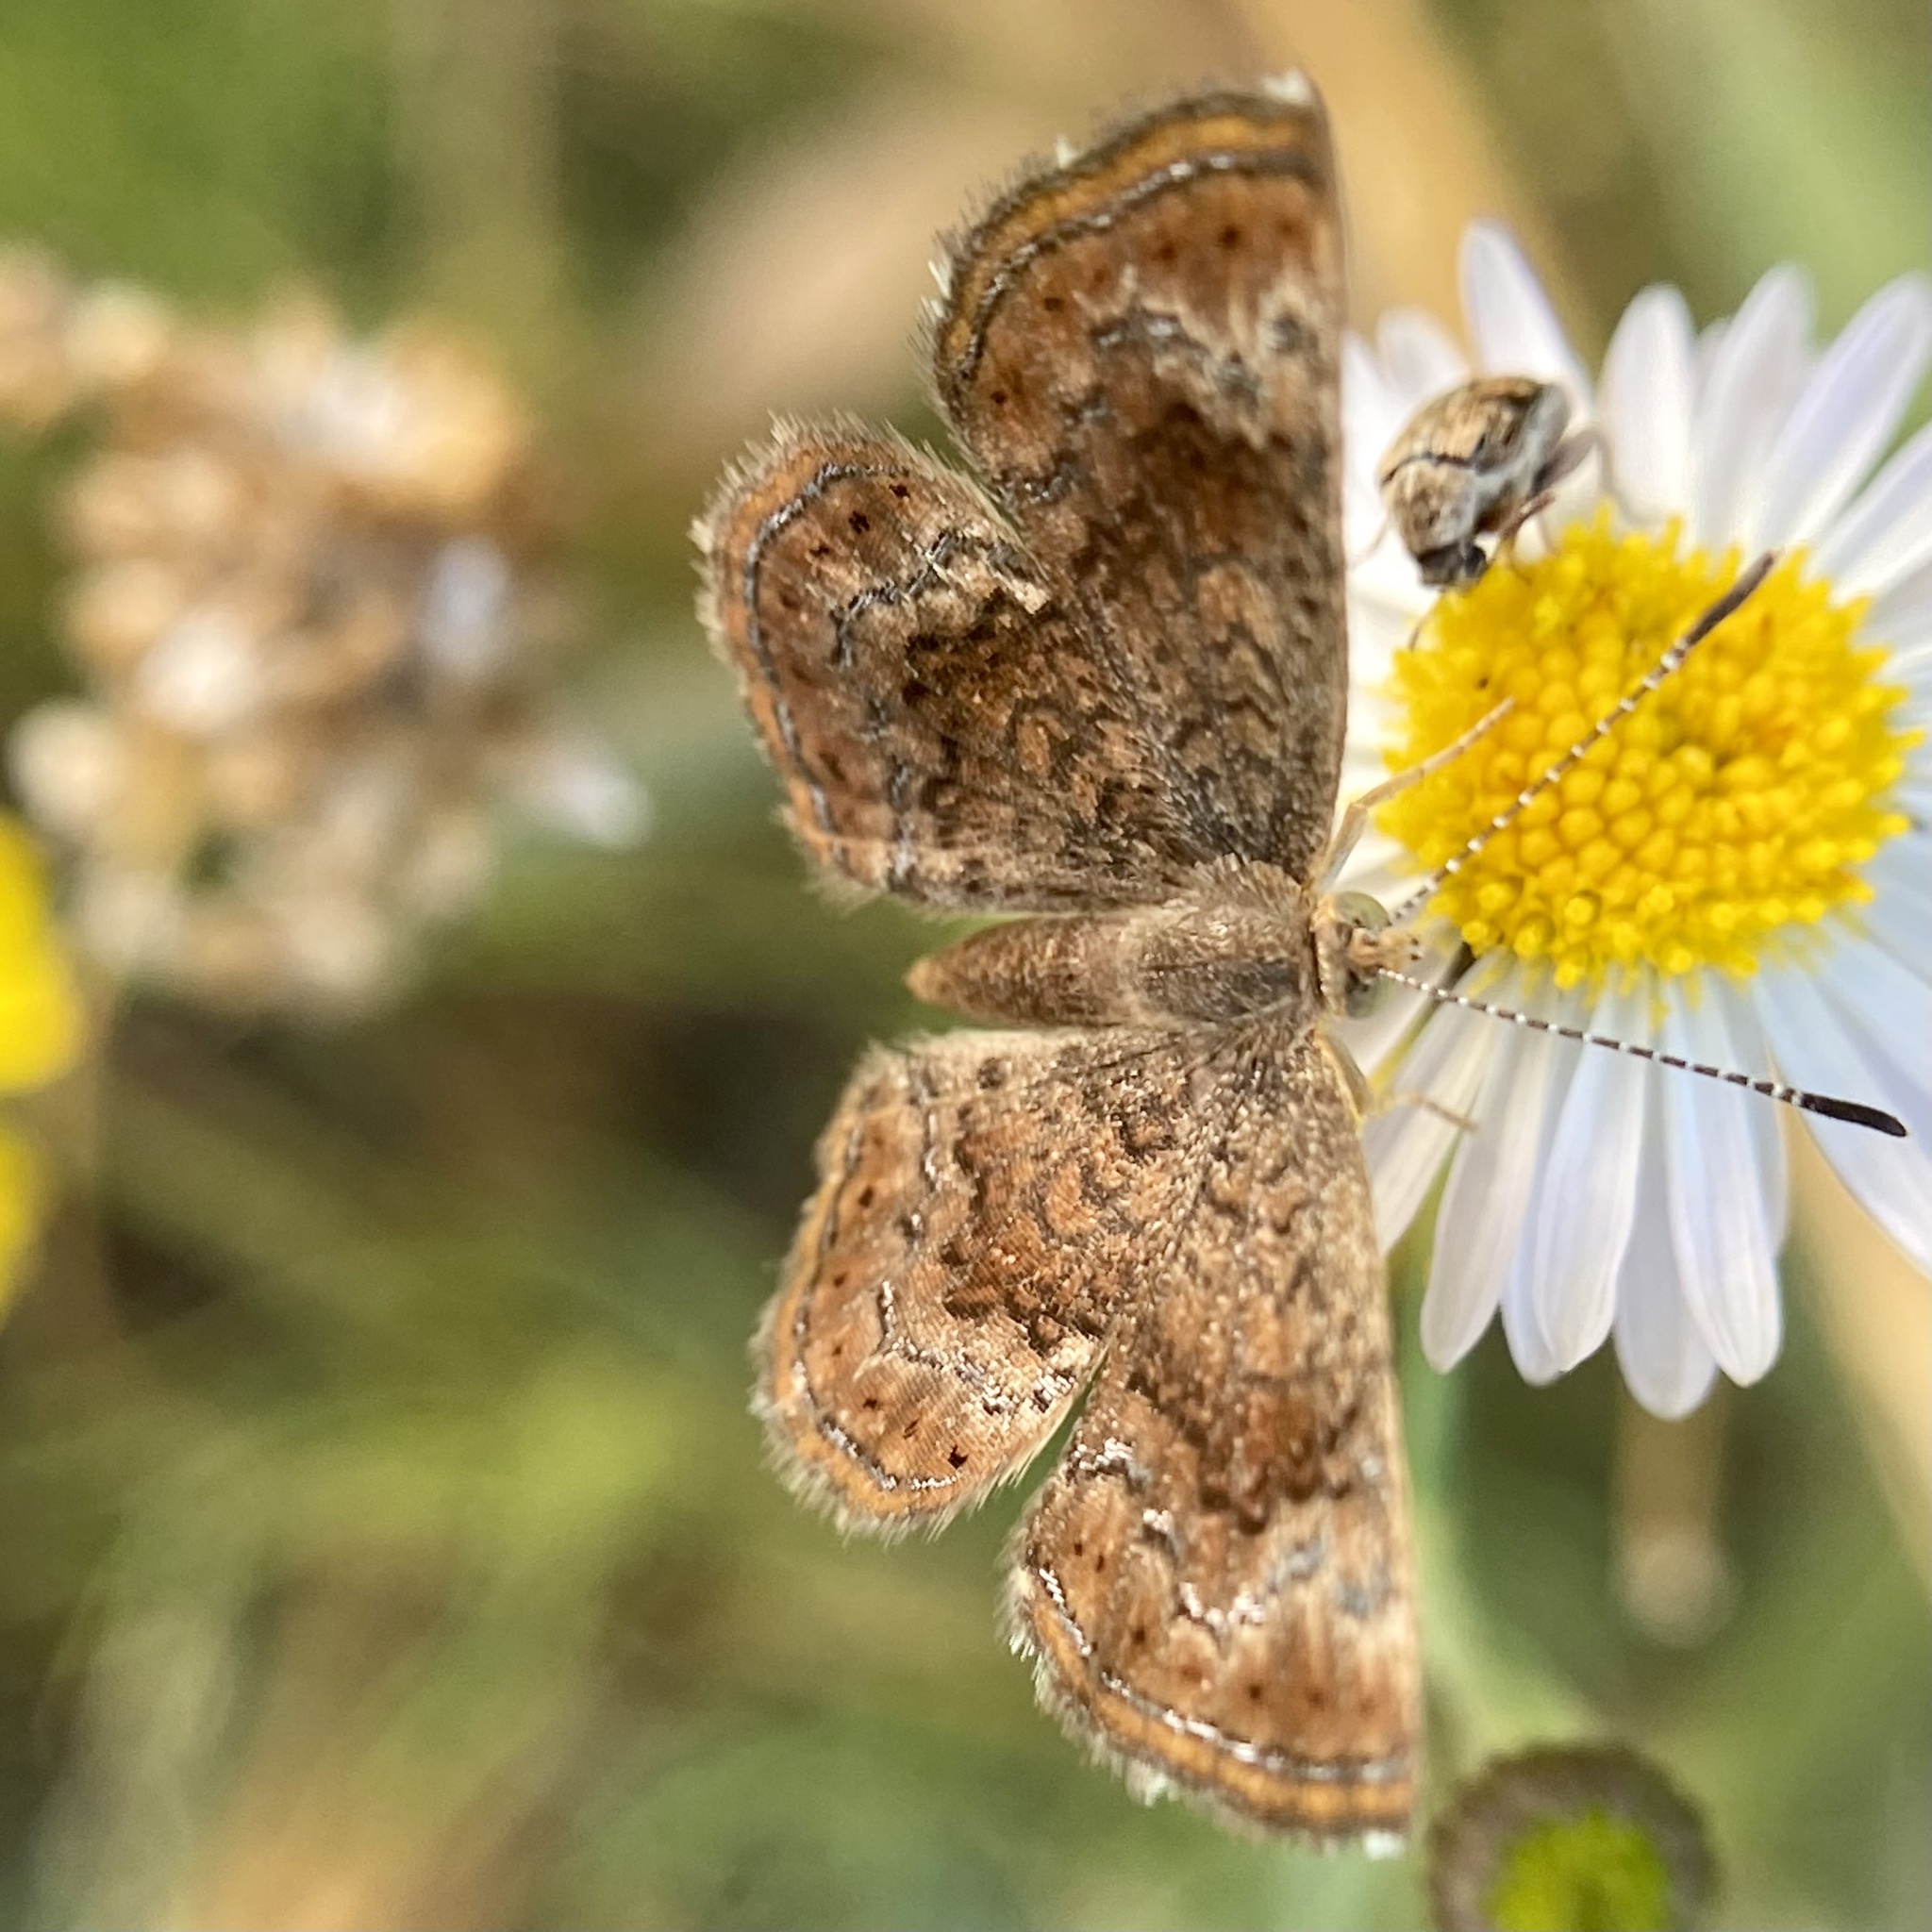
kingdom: Animalia
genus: Calephelis
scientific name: Calephelis perditalis
